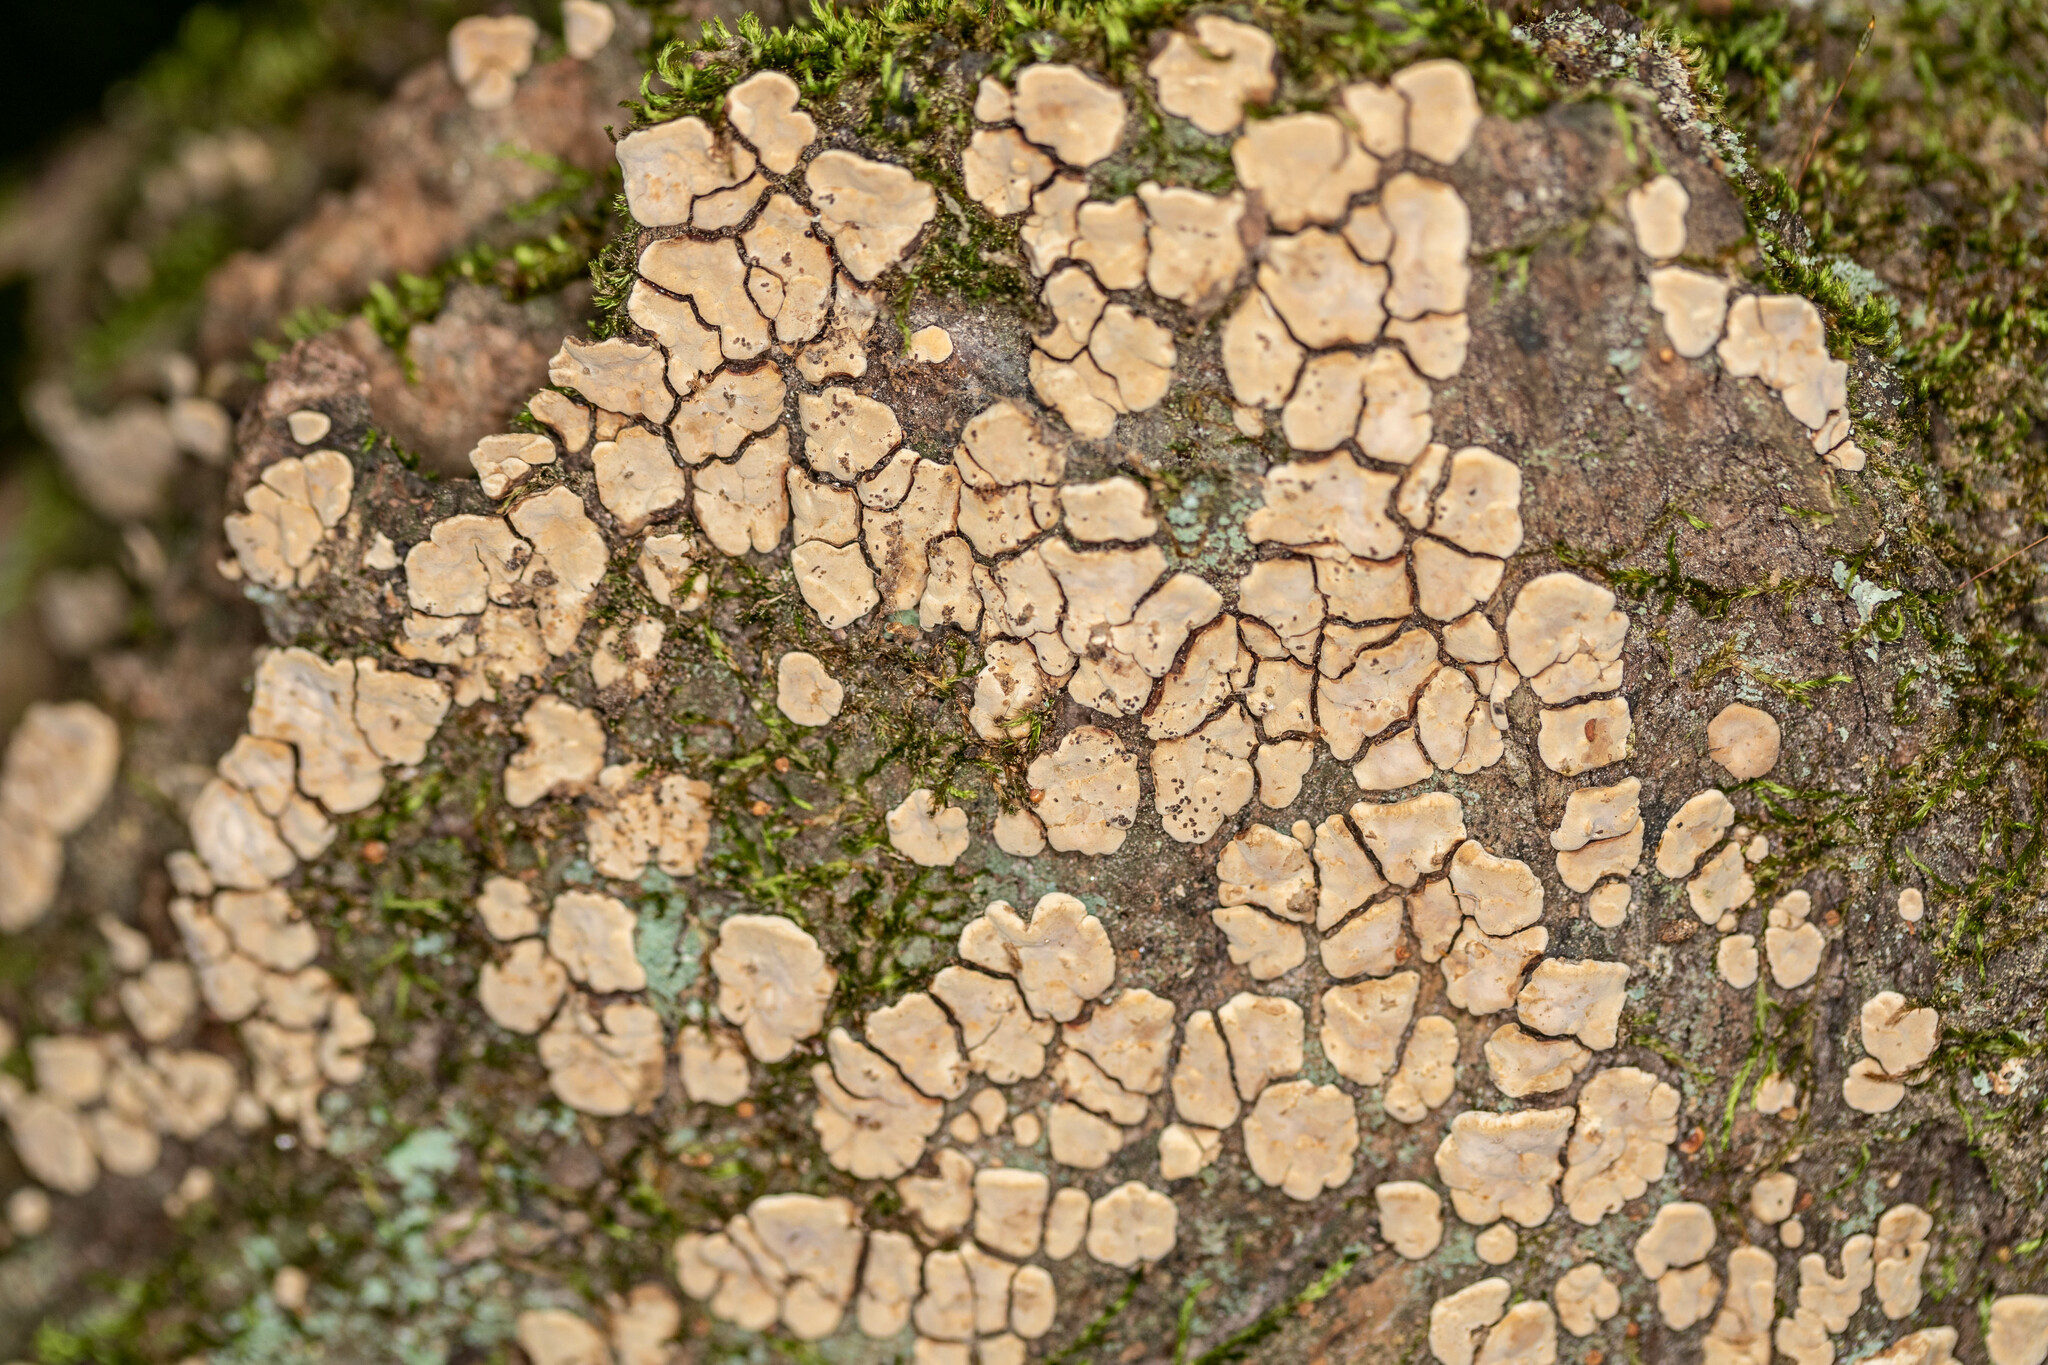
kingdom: Fungi
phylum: Basidiomycota
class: Agaricomycetes
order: Russulales
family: Stereaceae
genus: Xylobolus
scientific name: Xylobolus frustulatus
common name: Ceramic parchment
